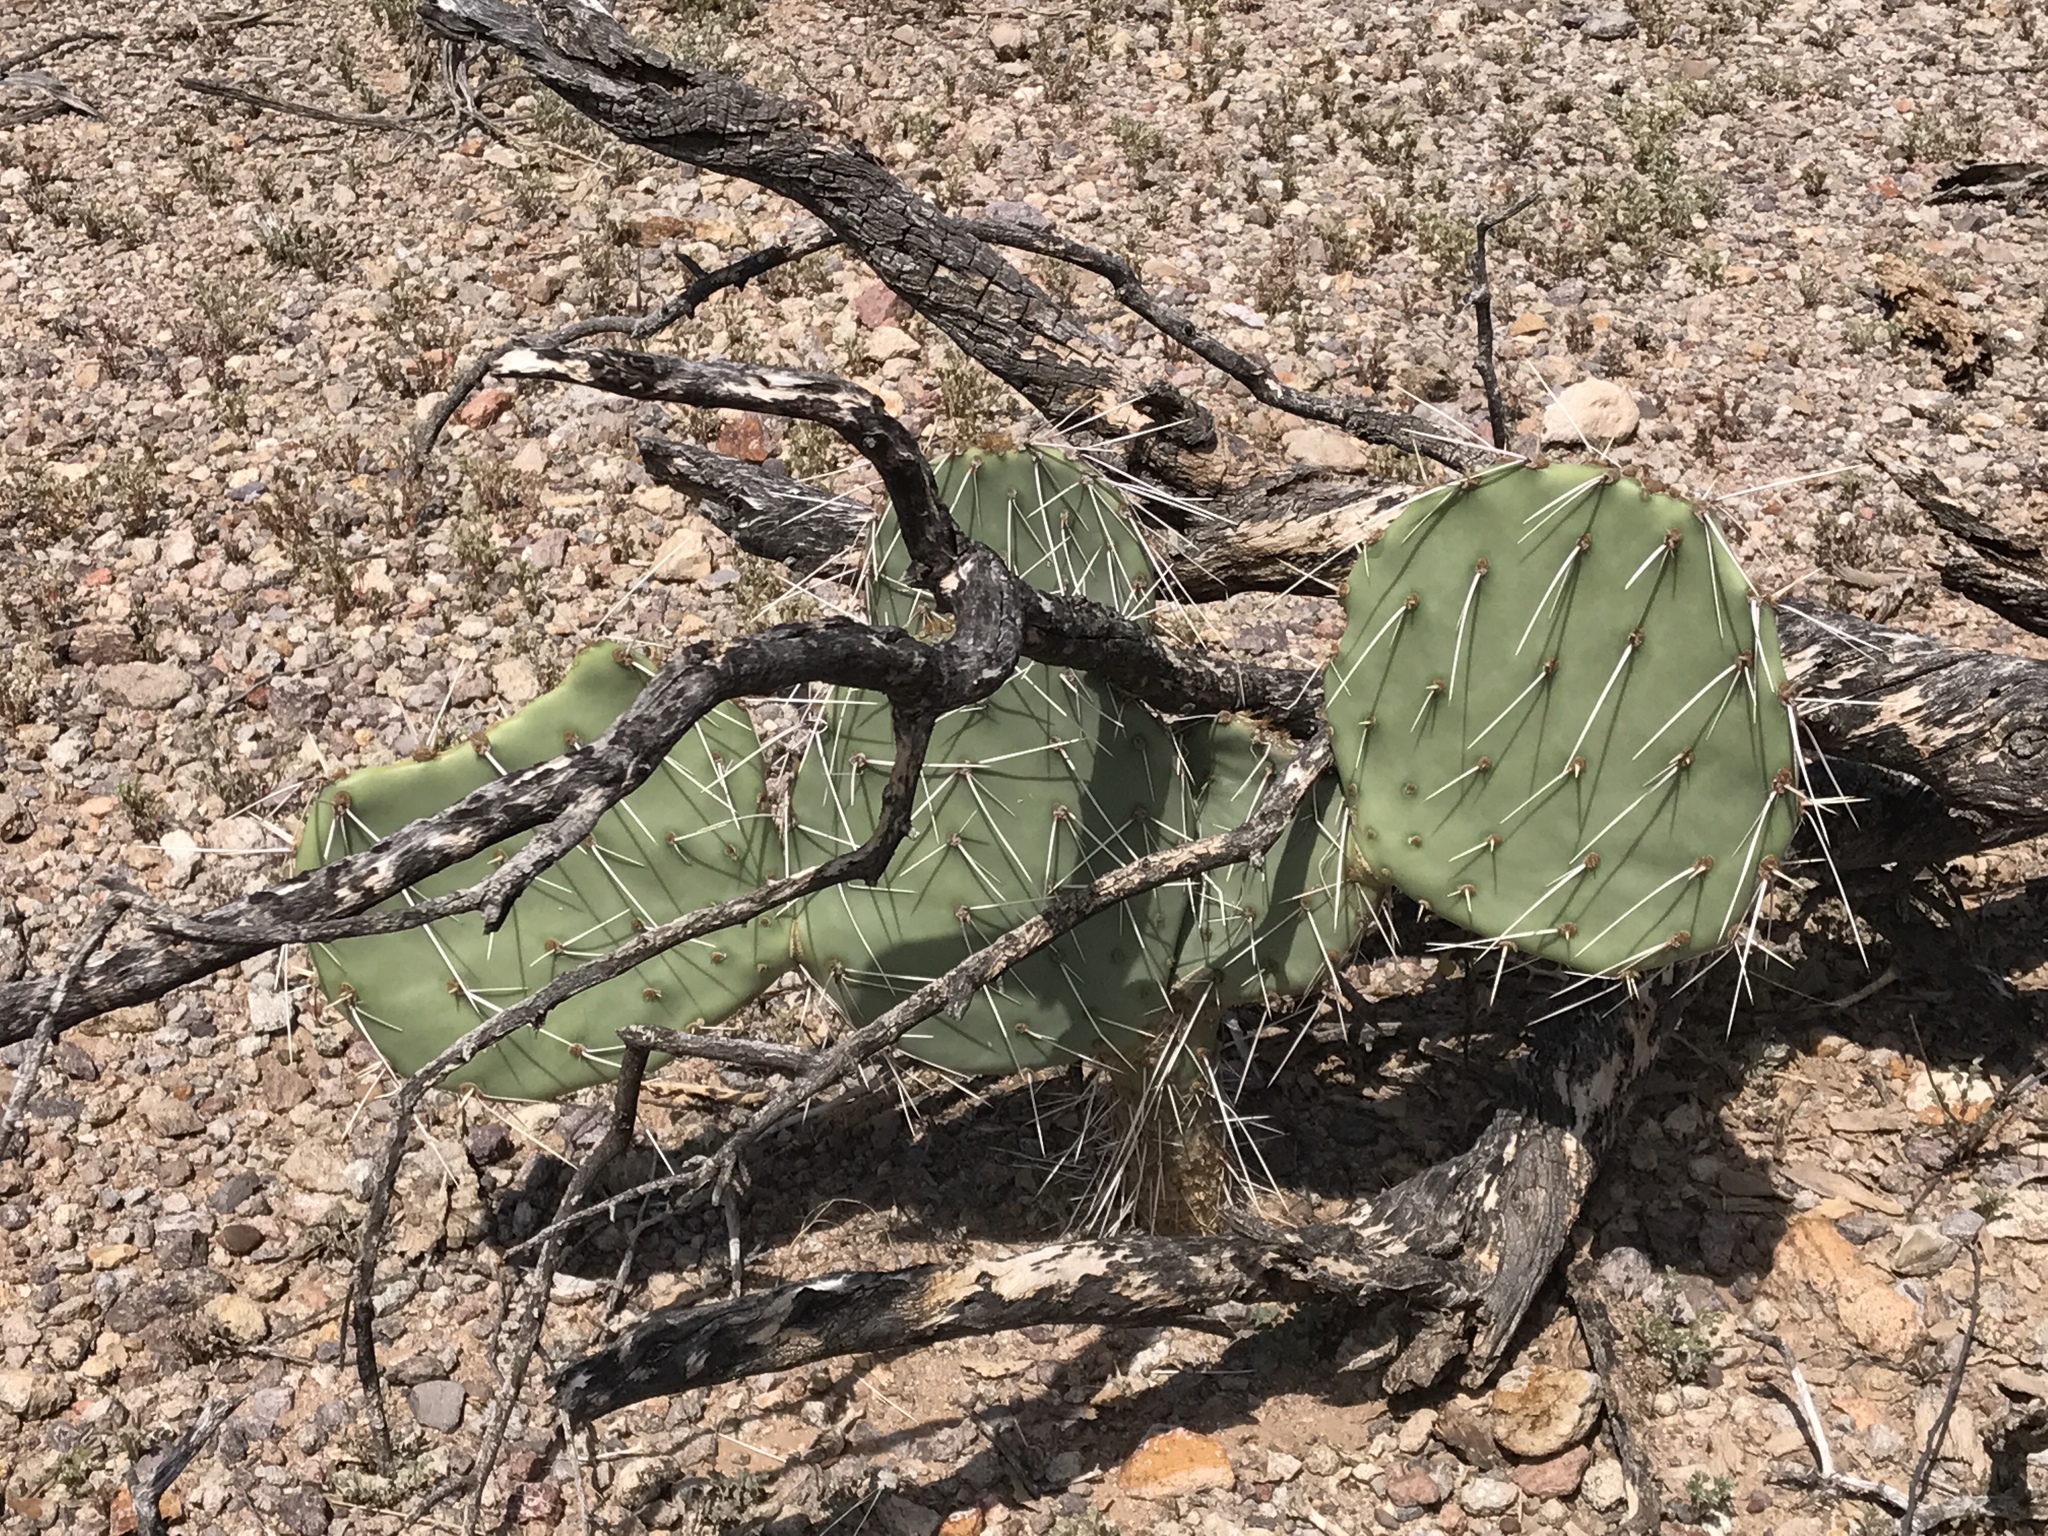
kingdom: Plantae
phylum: Tracheophyta
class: Magnoliopsida
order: Caryophyllales
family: Cactaceae
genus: Opuntia
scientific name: Opuntia engelmannii
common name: Cactus-apple
